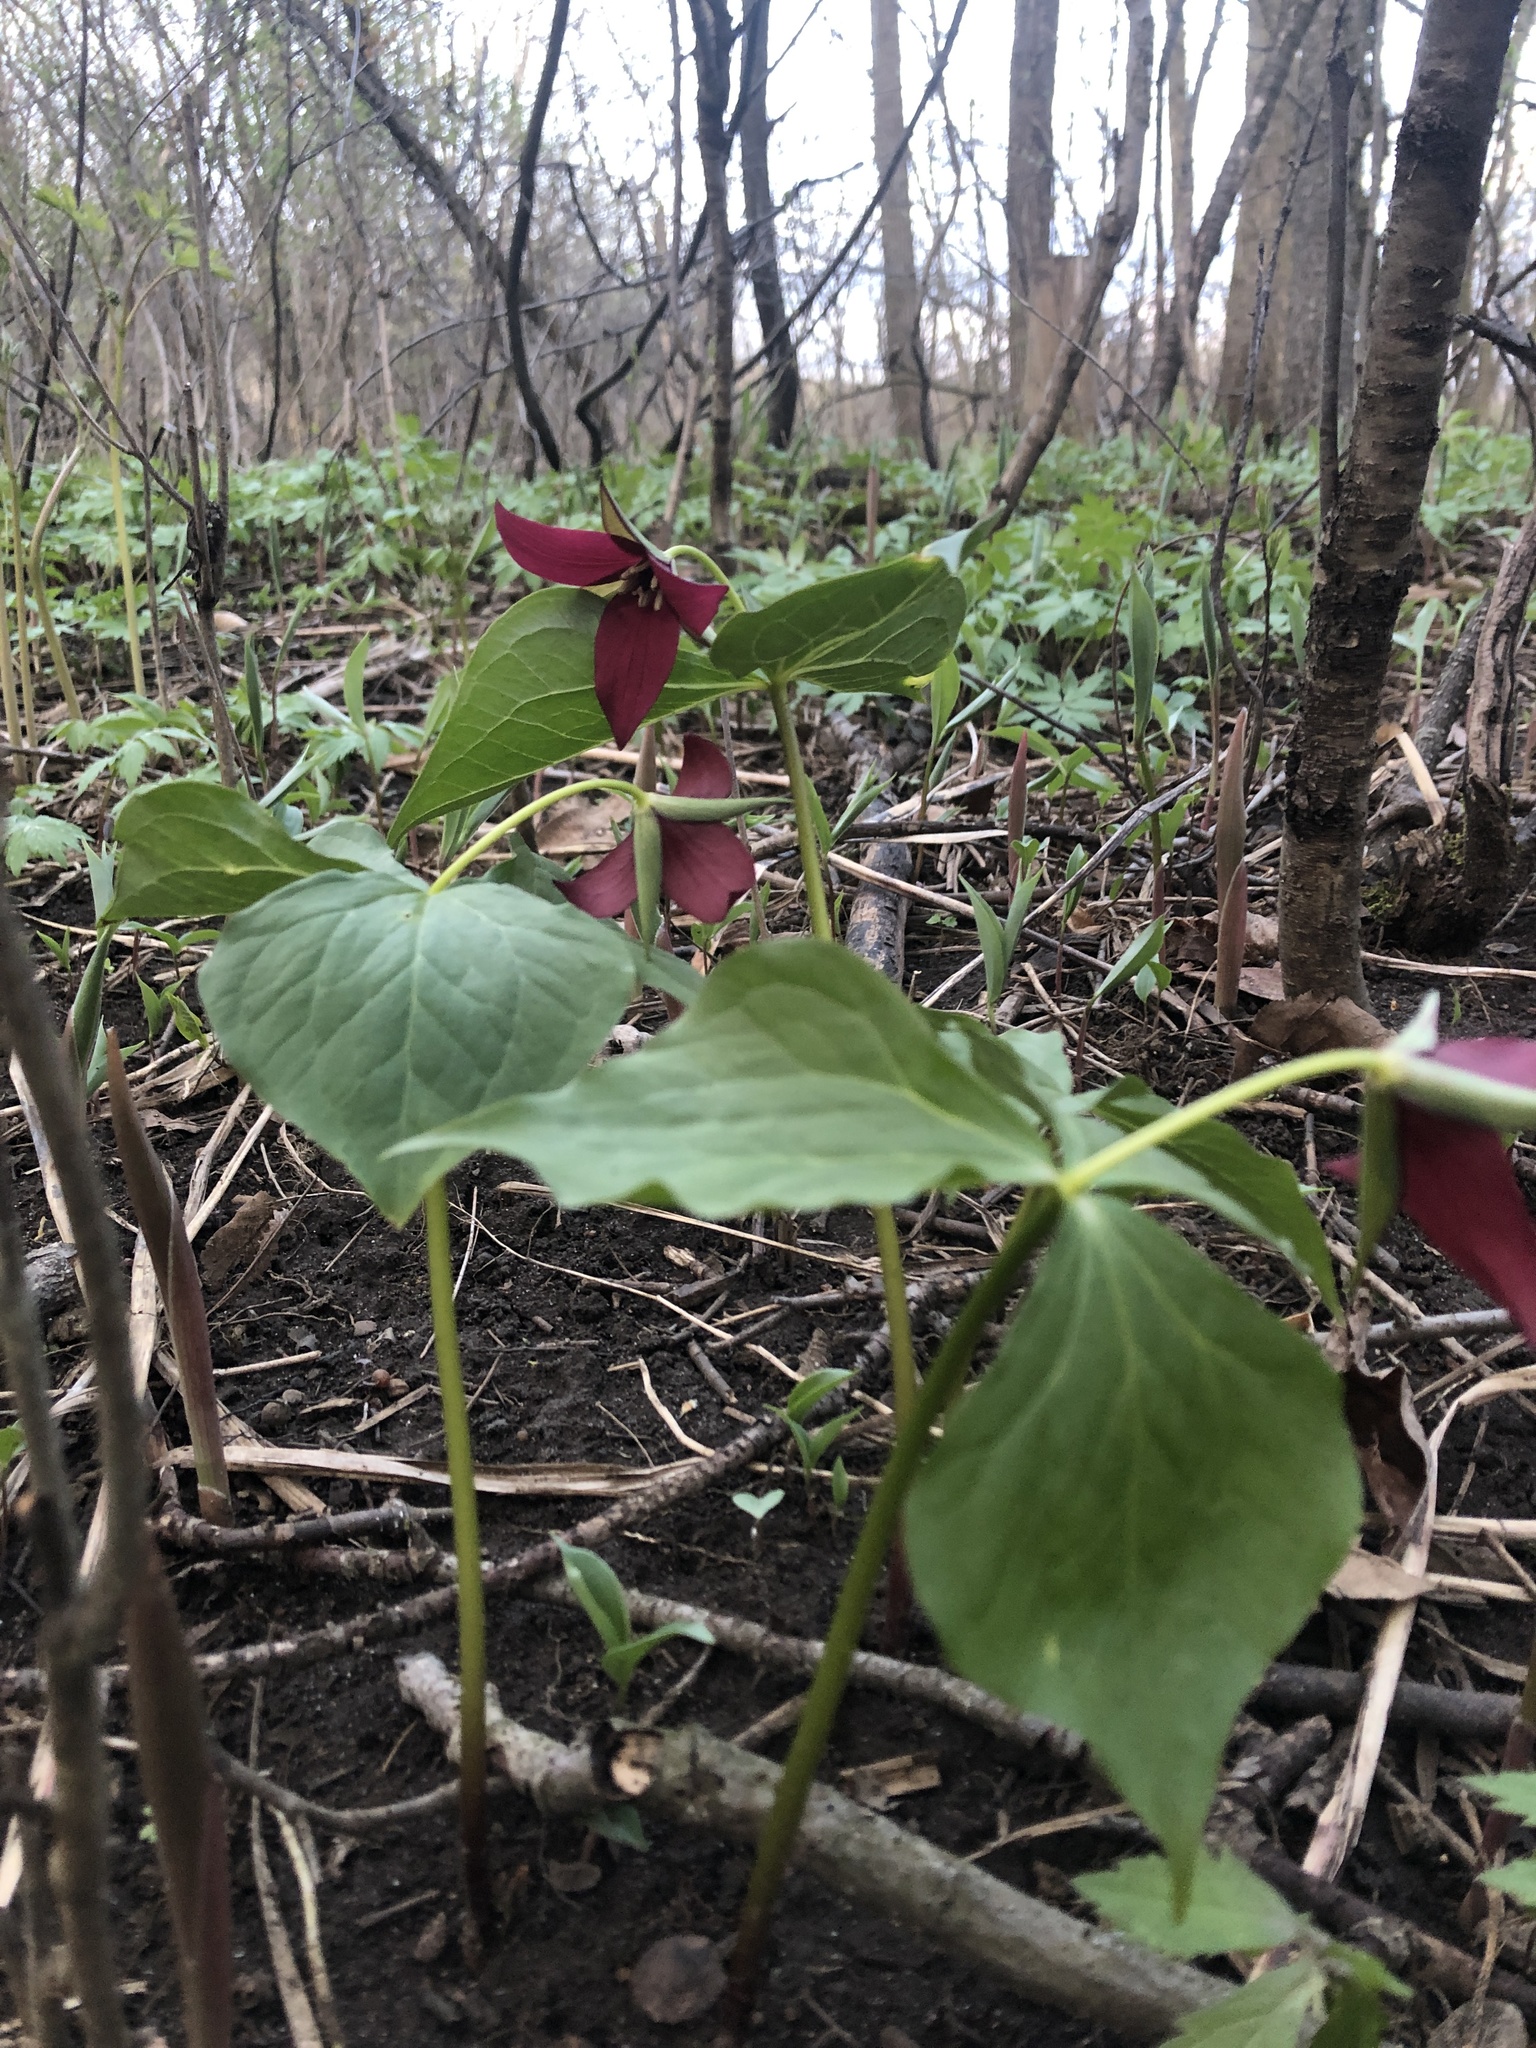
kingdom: Plantae
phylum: Tracheophyta
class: Liliopsida
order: Liliales
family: Melanthiaceae
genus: Trillium
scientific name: Trillium erectum
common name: Purple trillium
